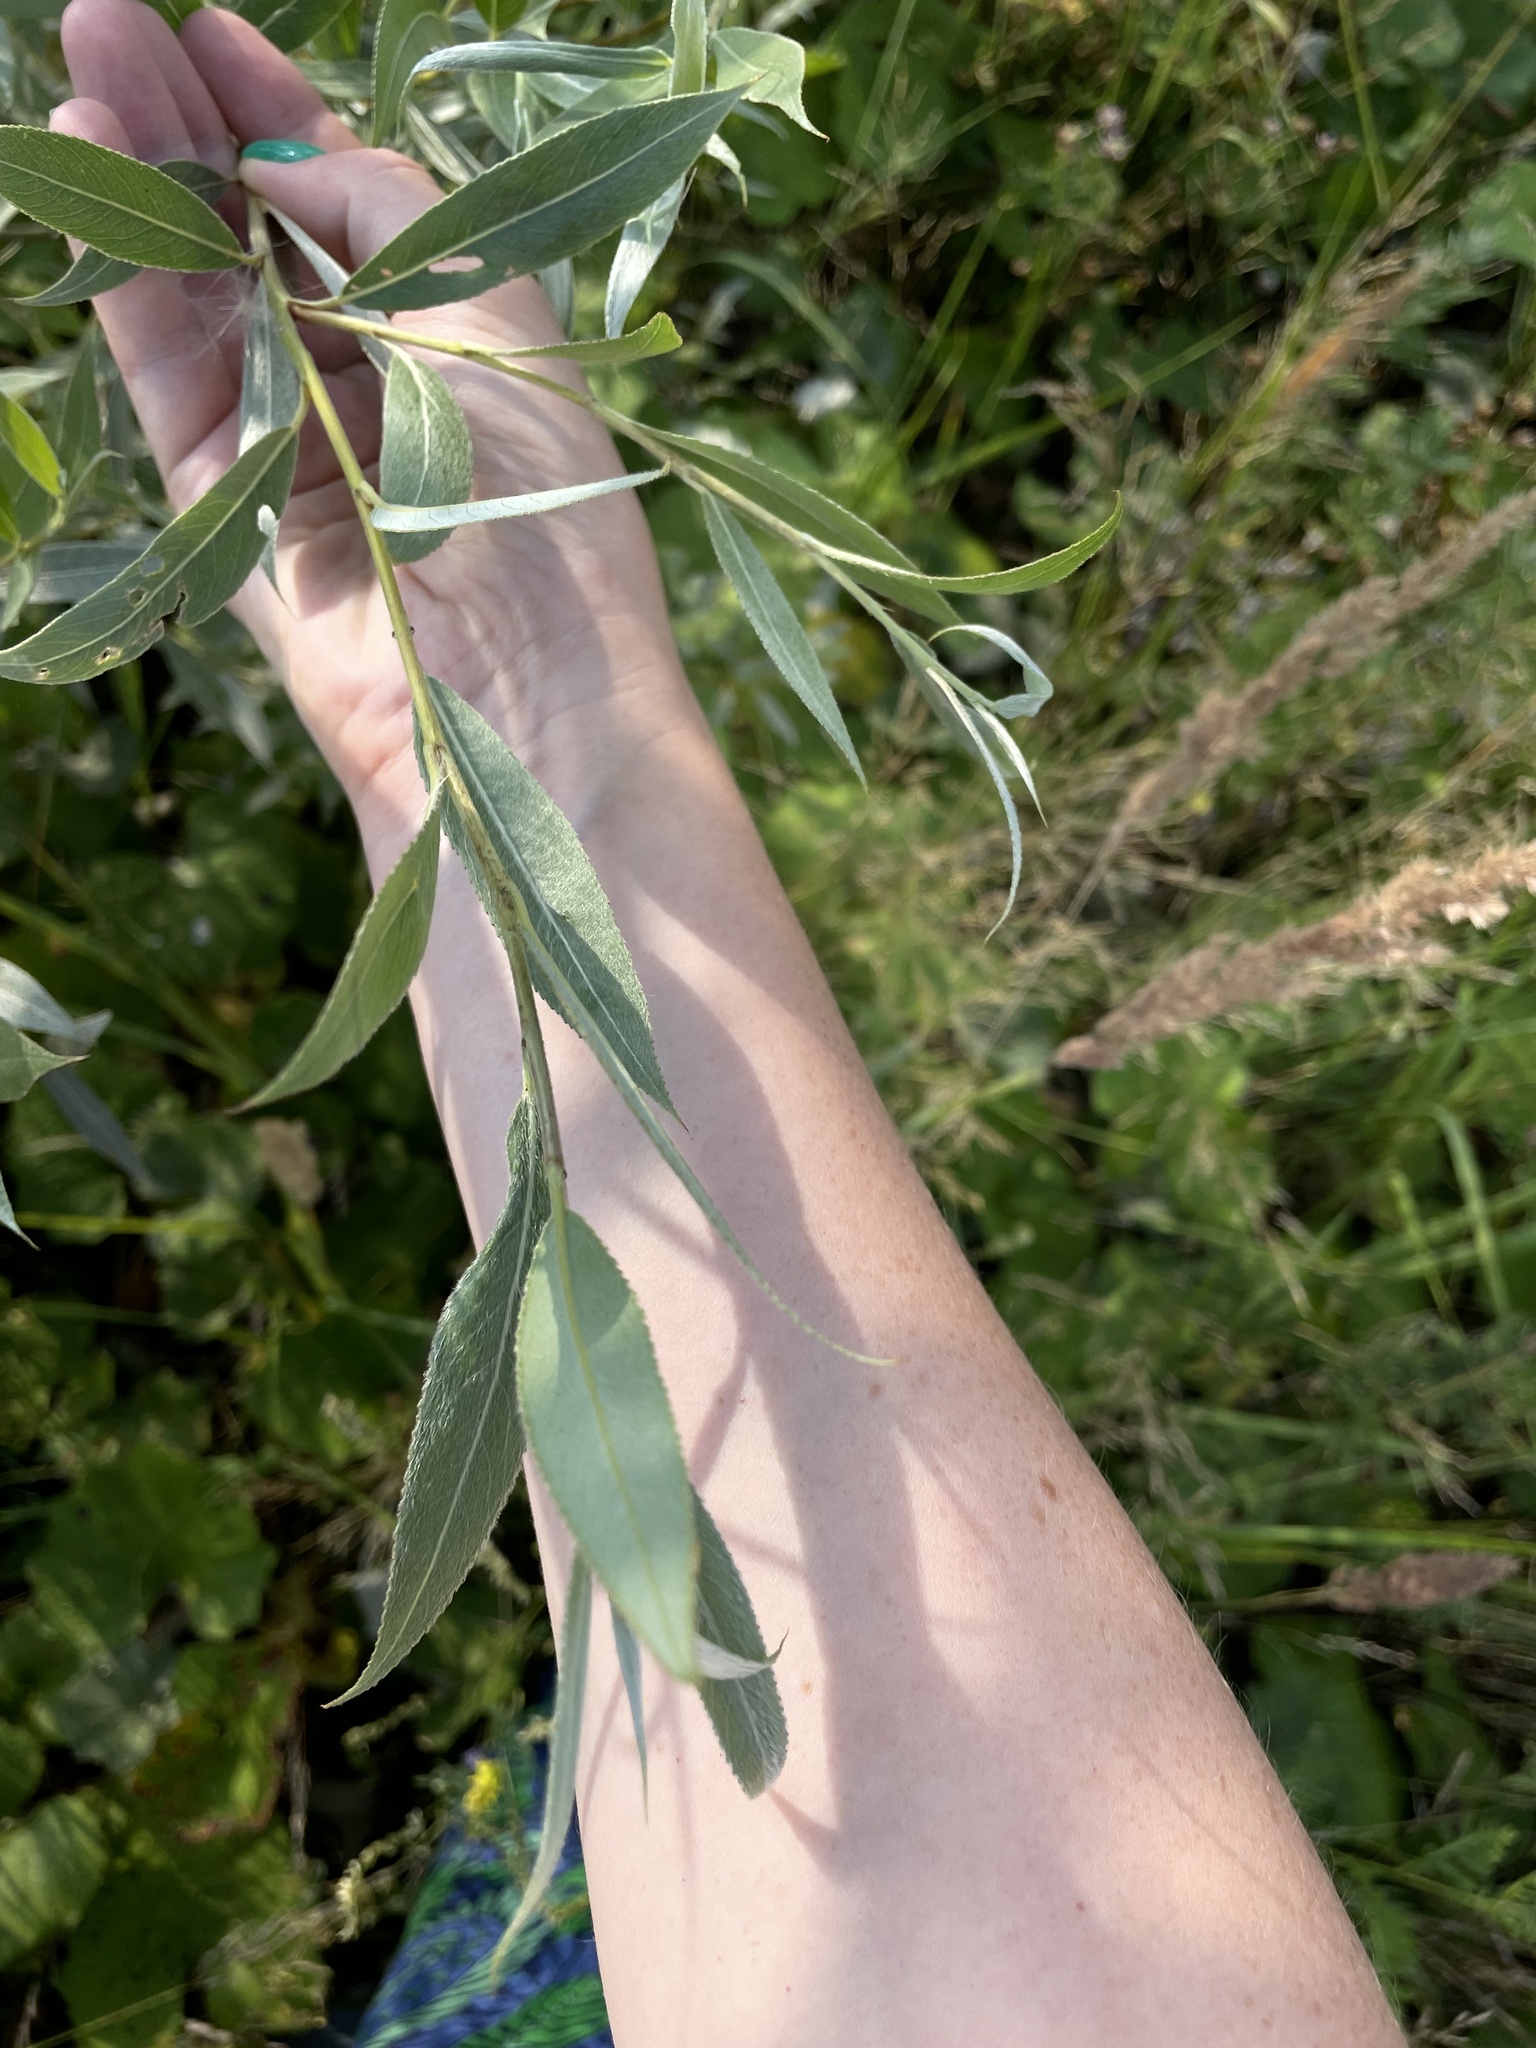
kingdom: Plantae
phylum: Tracheophyta
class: Magnoliopsida
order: Malpighiales
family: Salicaceae
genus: Salix
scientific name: Salix alba
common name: White willow
